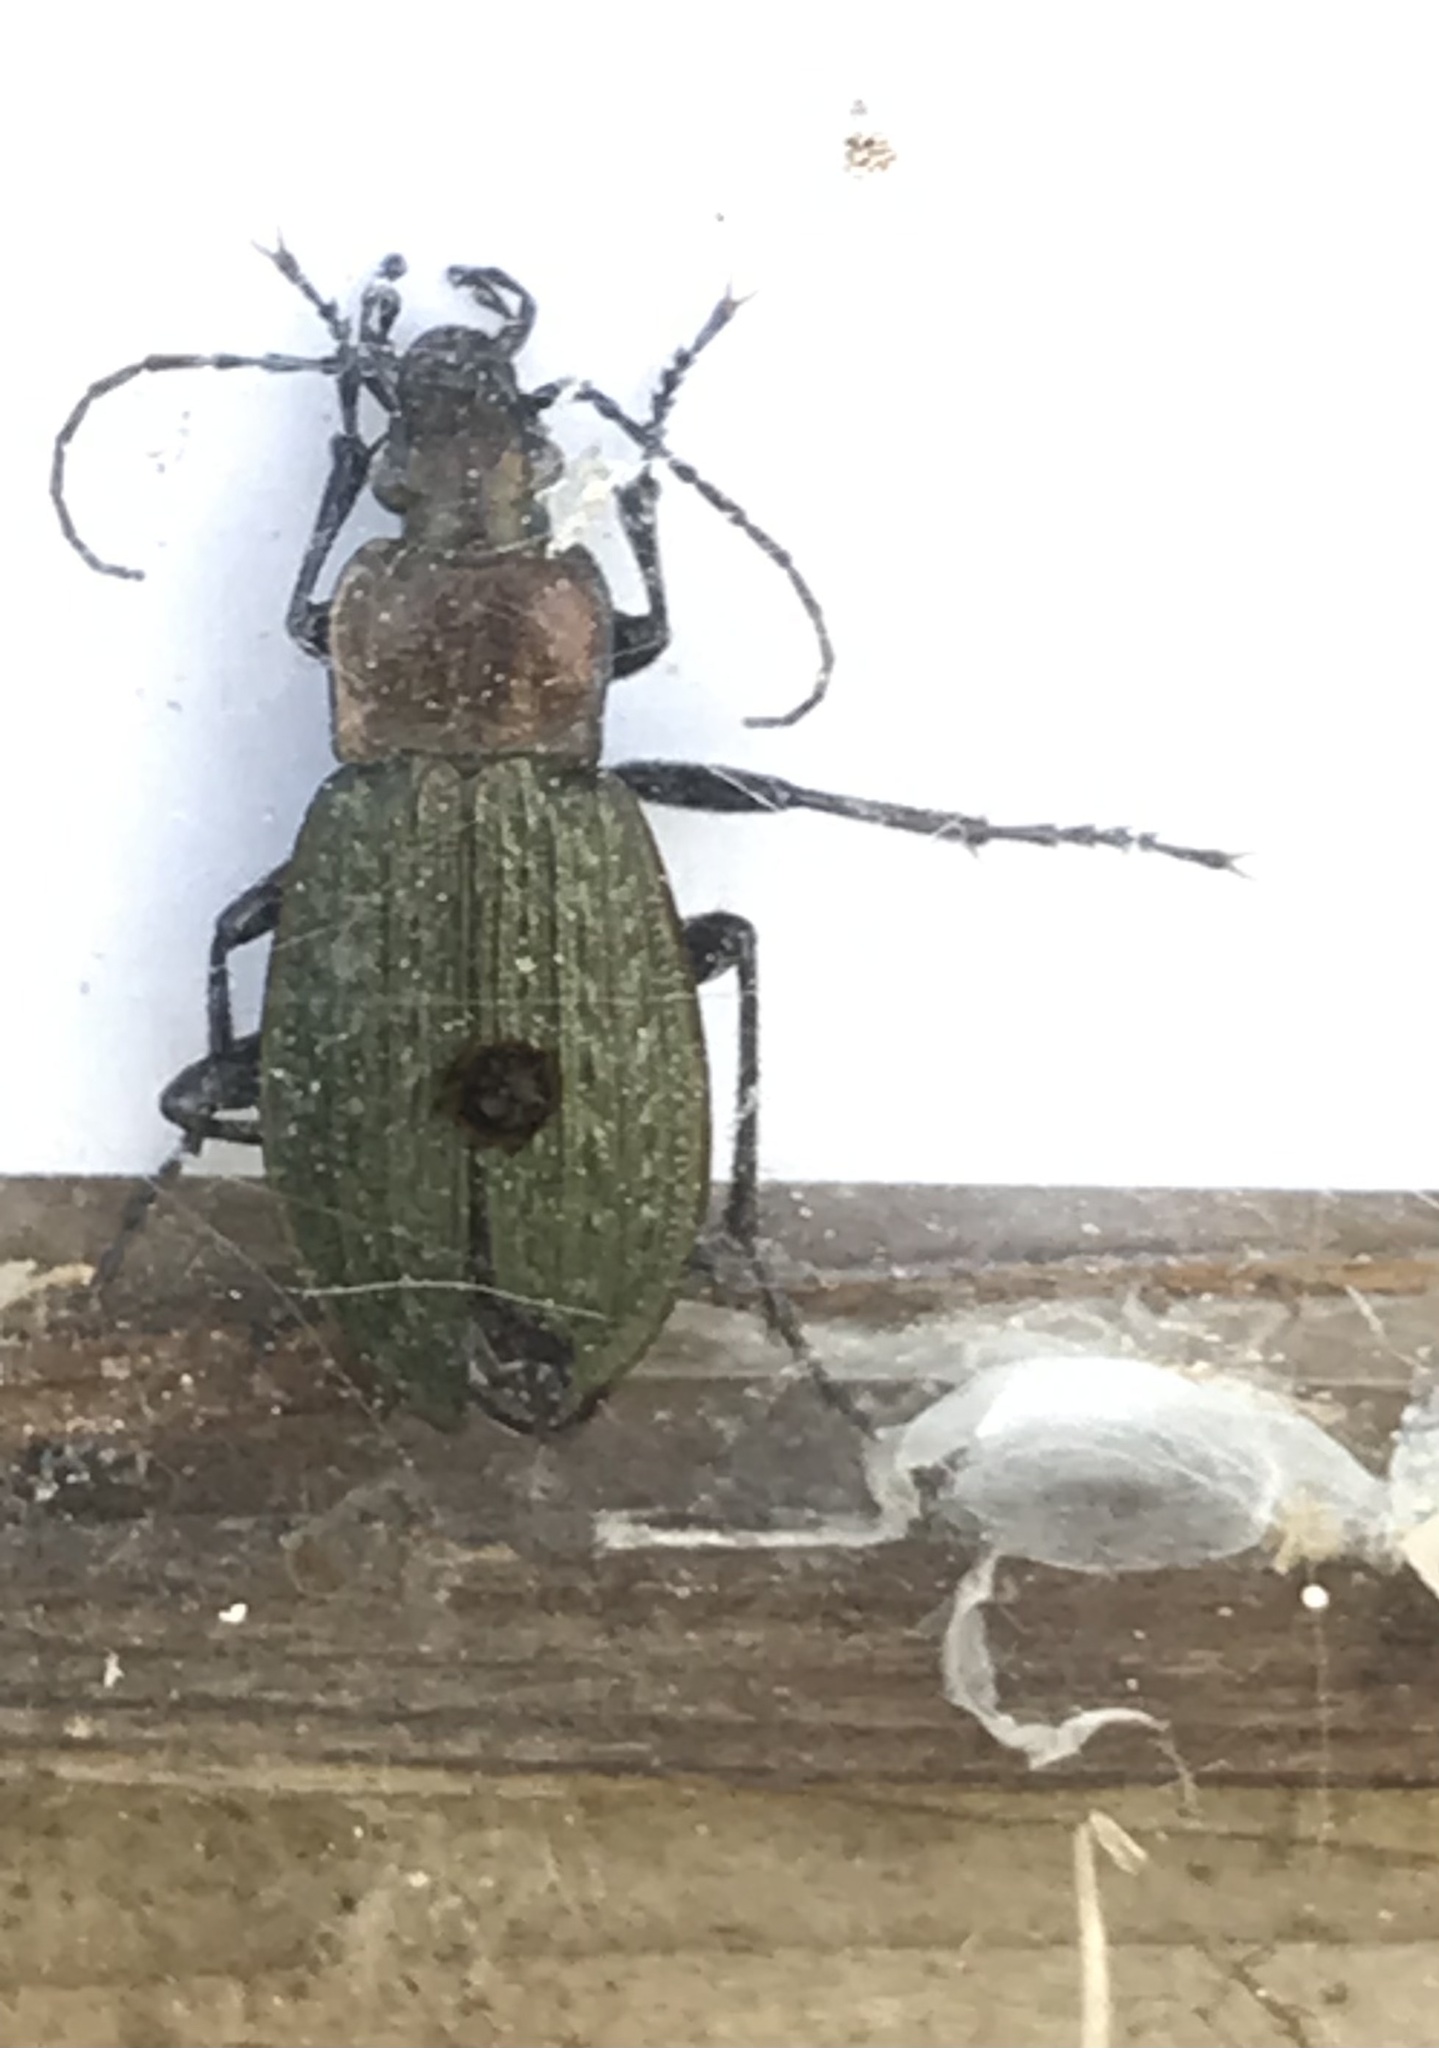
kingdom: Animalia
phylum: Arthropoda
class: Insecta
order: Coleoptera
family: Carabidae
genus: Carabus
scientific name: Carabus granulatus
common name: Granulate ground beetle
